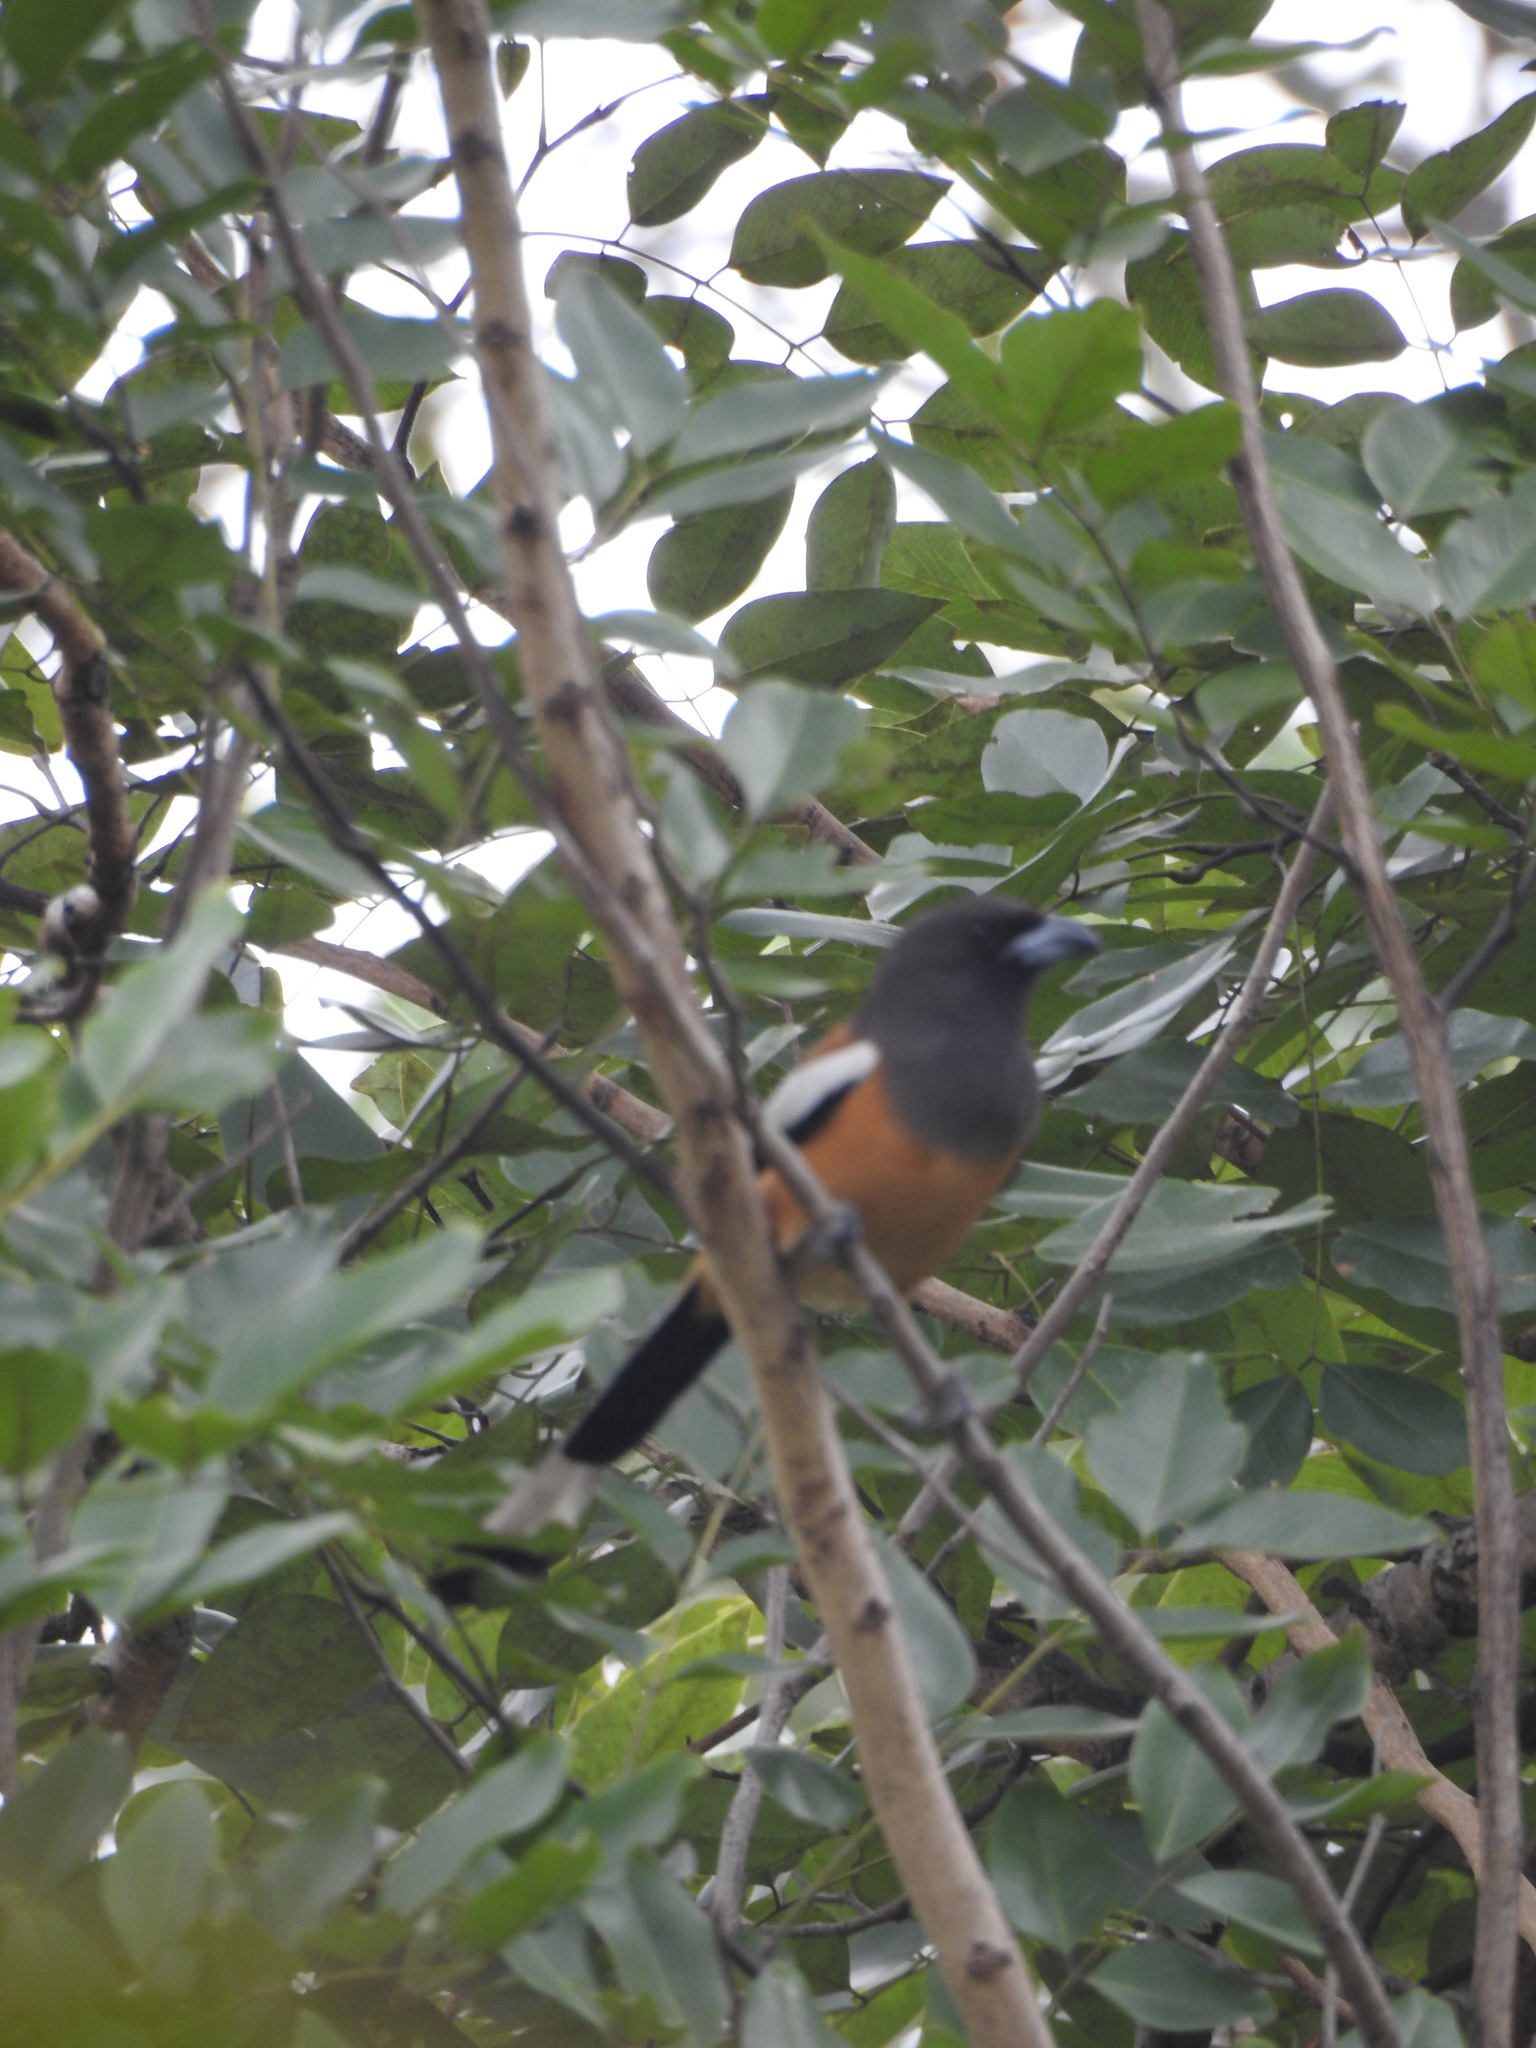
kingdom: Animalia
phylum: Chordata
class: Aves
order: Passeriformes
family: Corvidae
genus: Dendrocitta
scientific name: Dendrocitta vagabunda
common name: Rufous treepie
